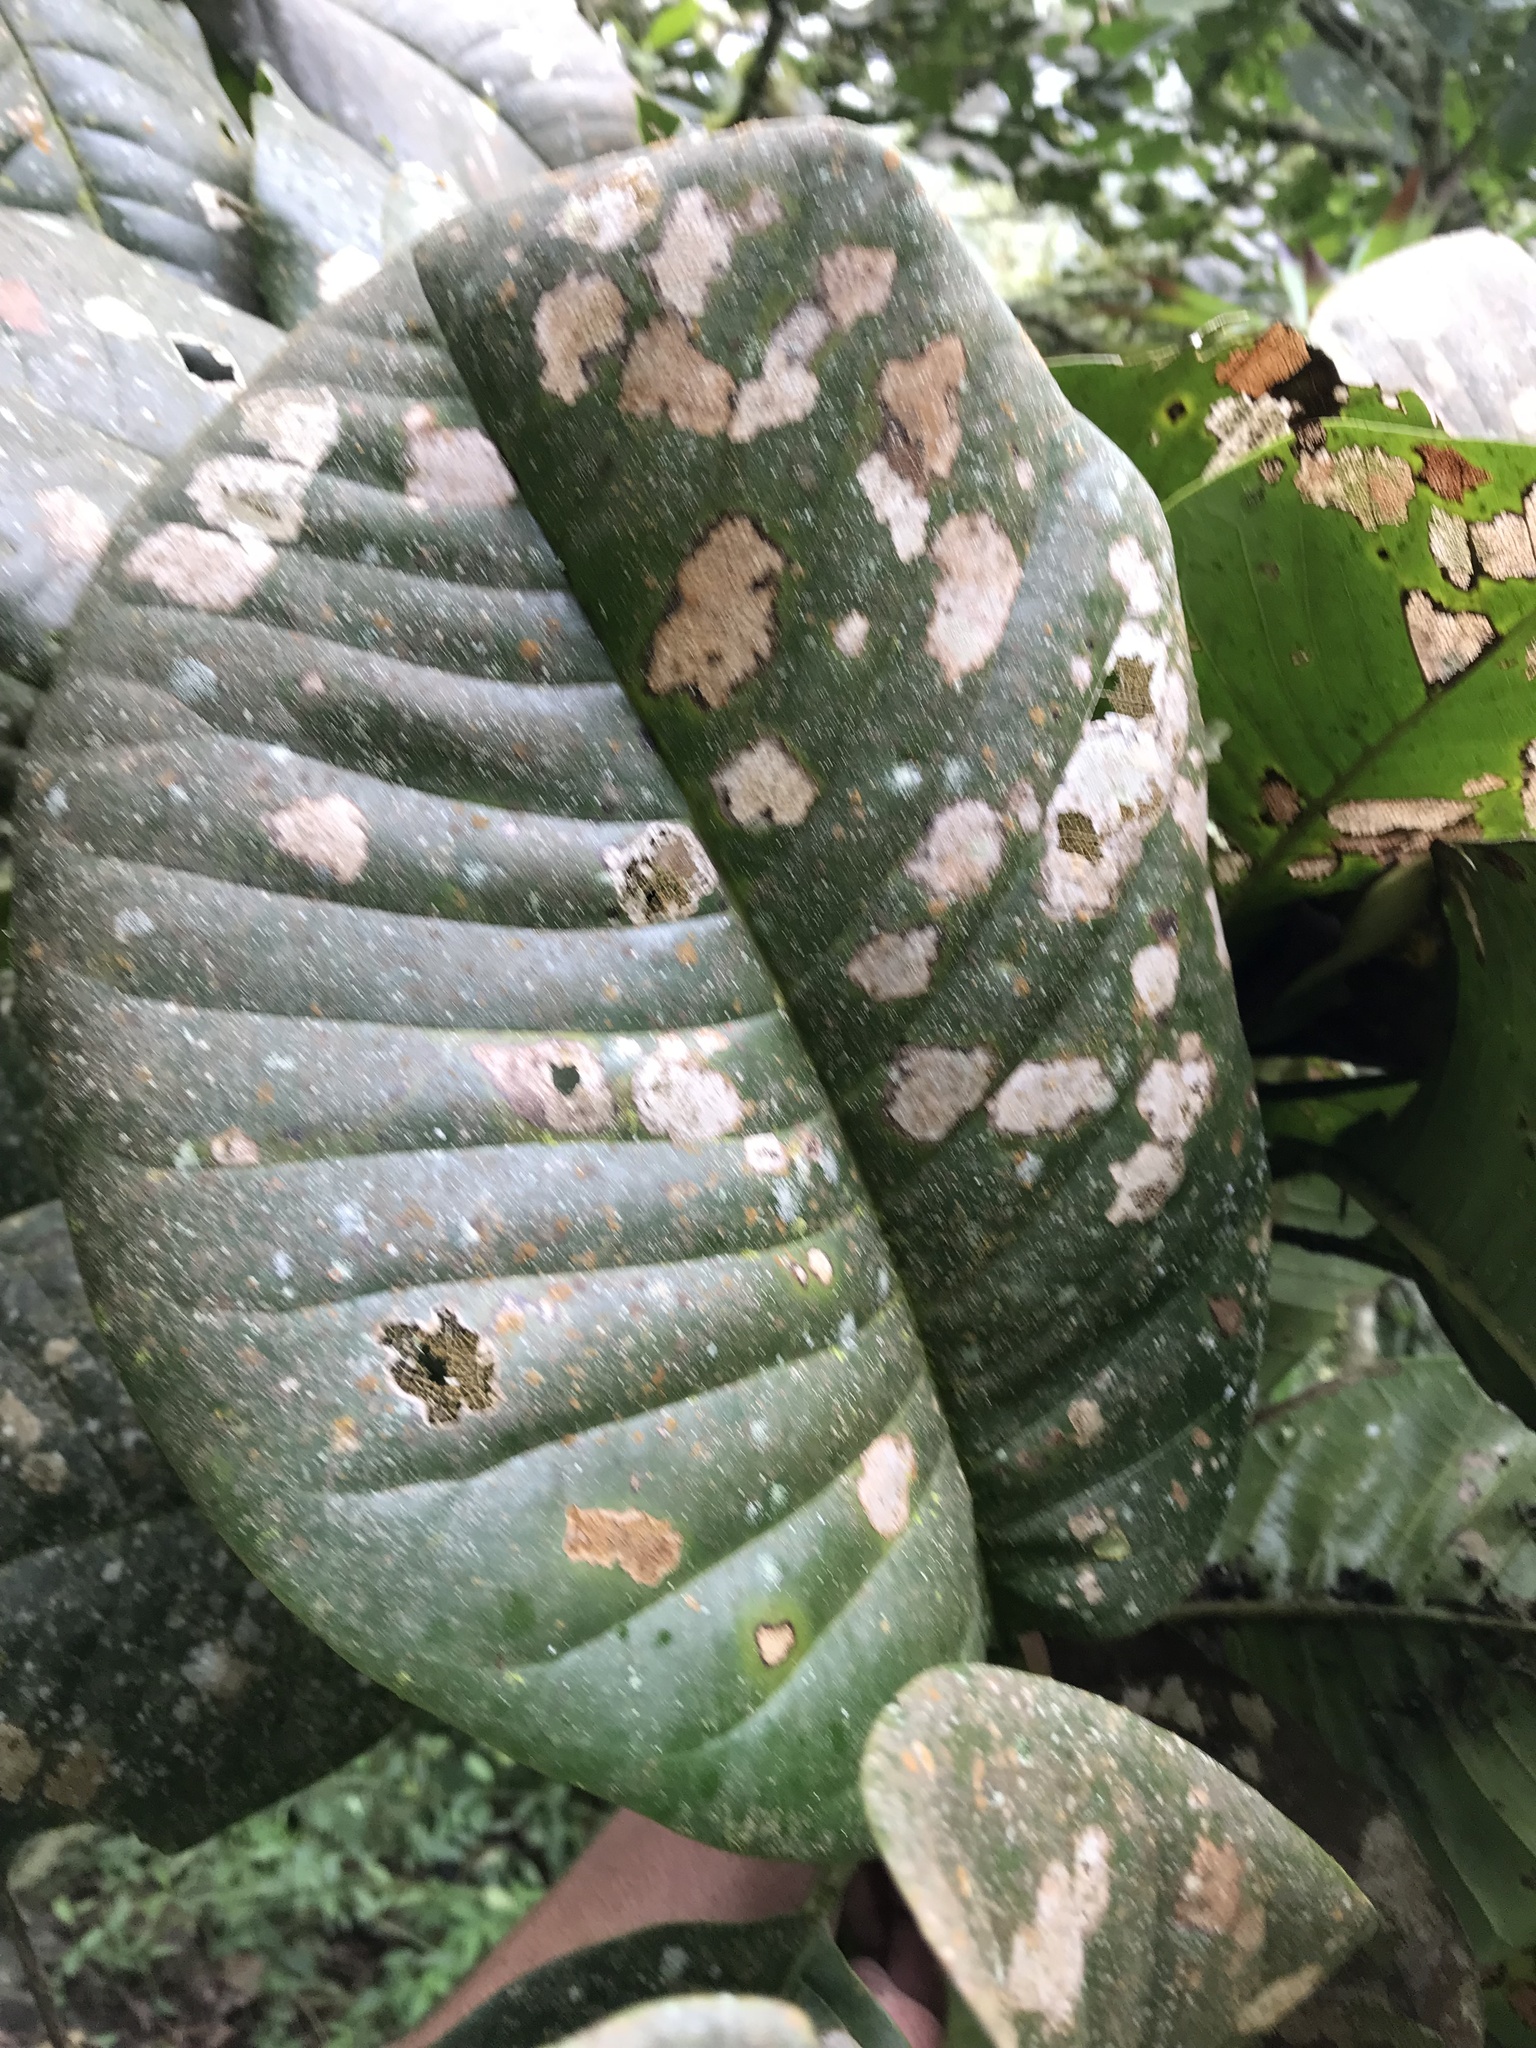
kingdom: Plantae
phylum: Tracheophyta
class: Magnoliopsida
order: Magnoliales
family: Magnoliaceae
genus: Magnolia
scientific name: Magnolia caricifragrans
